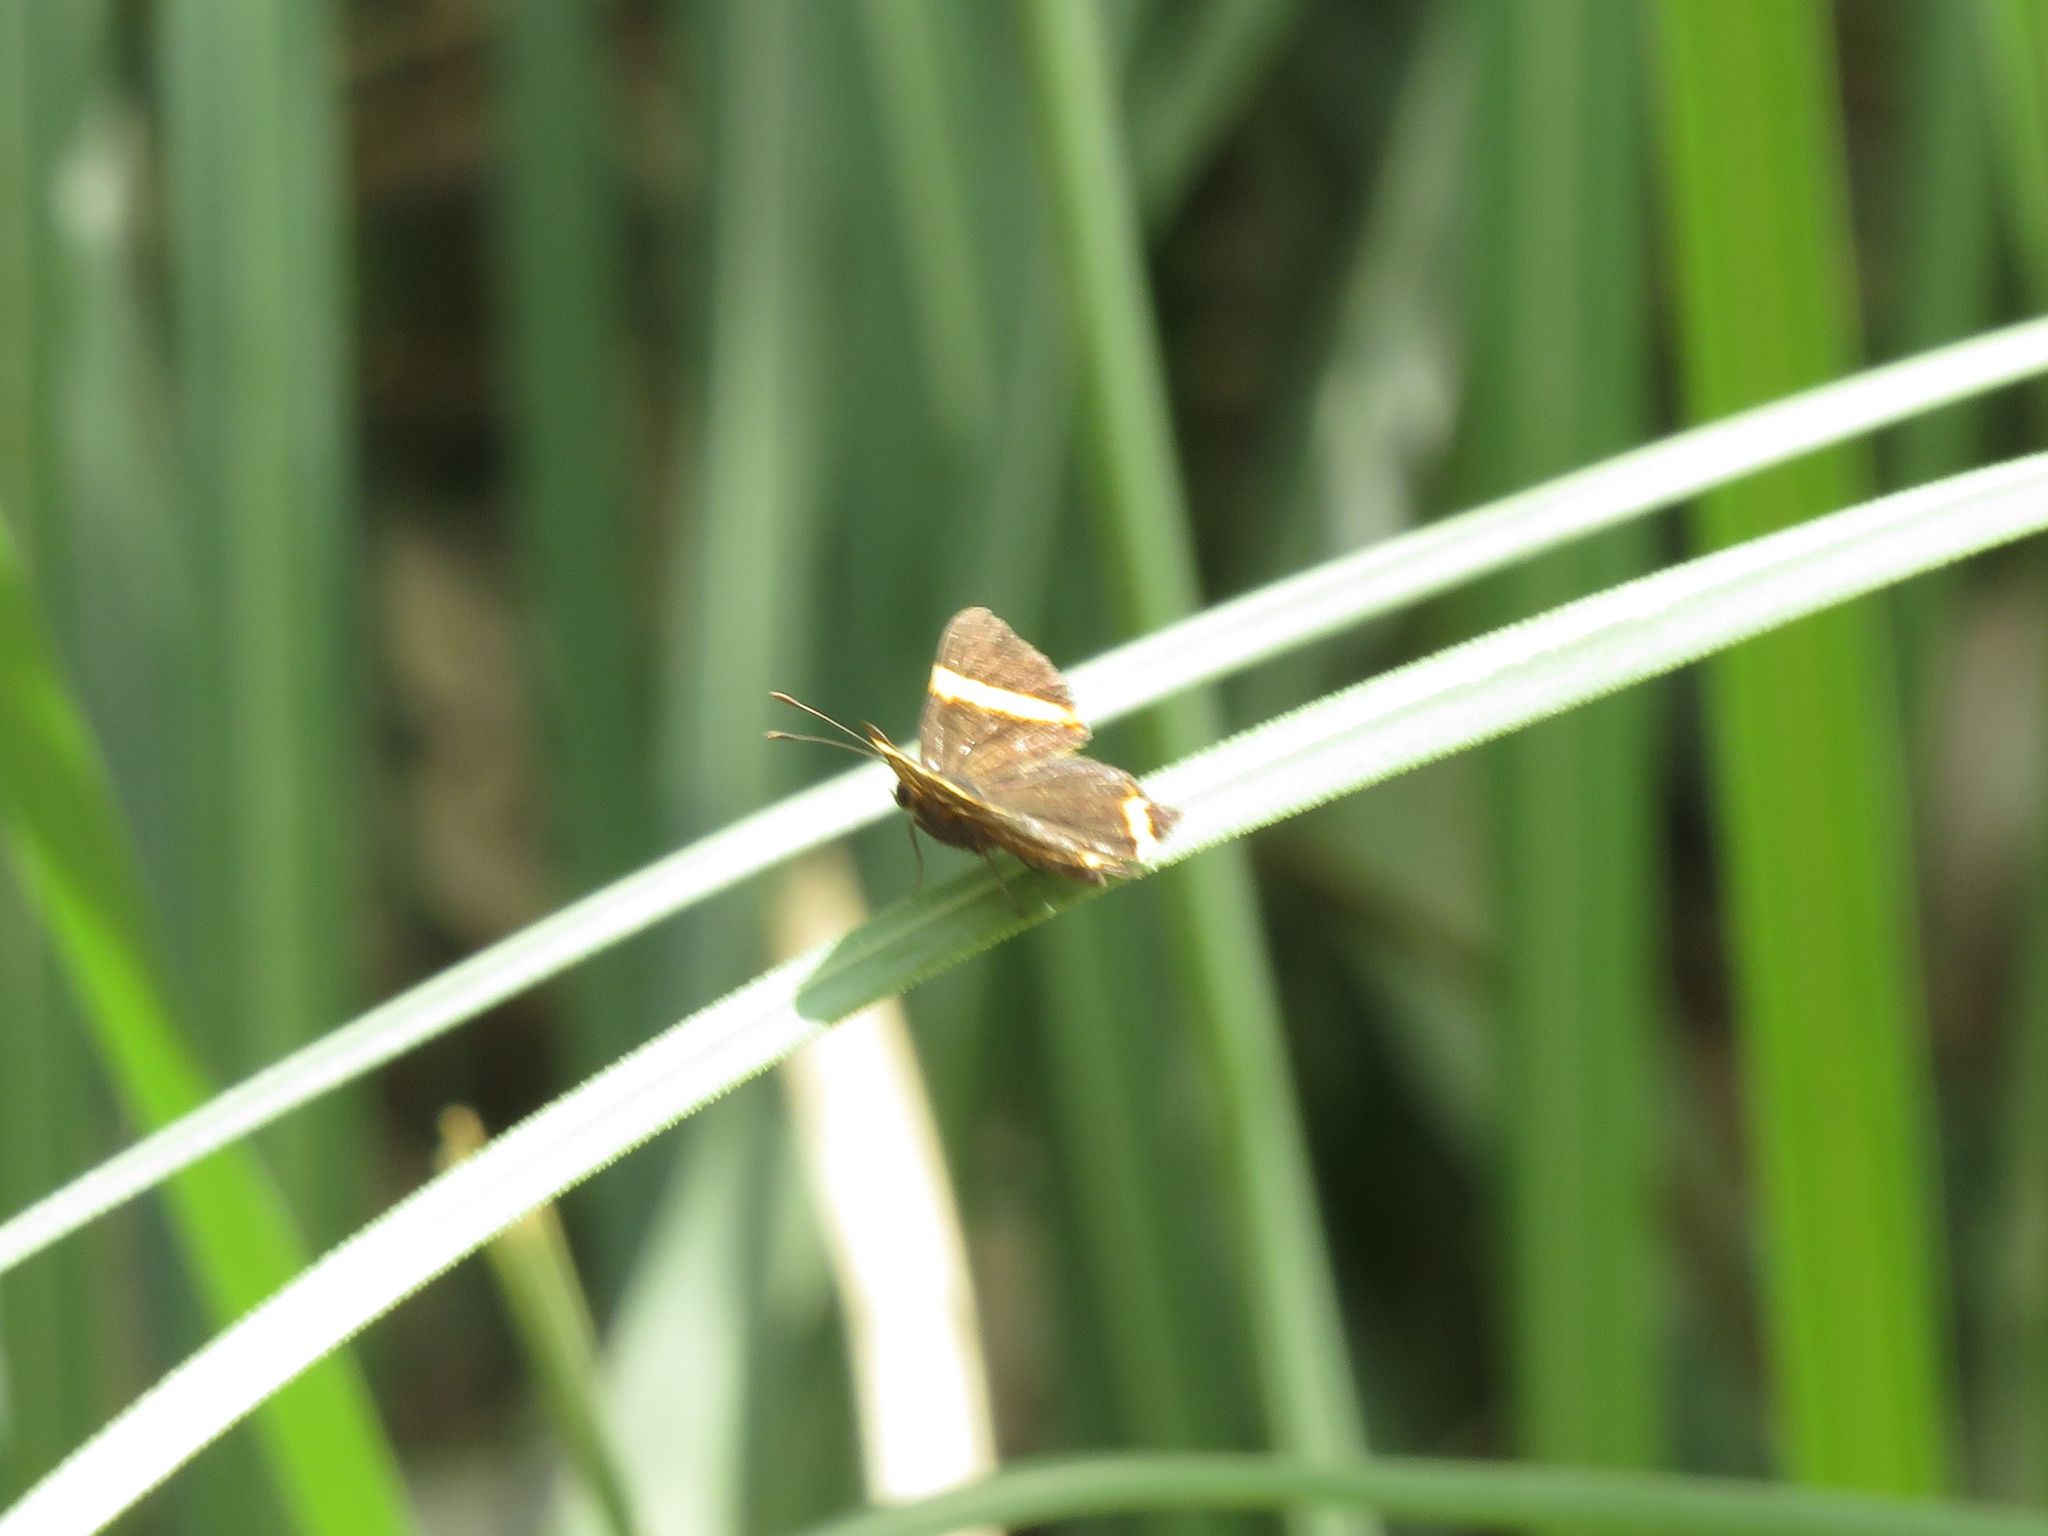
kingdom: Animalia
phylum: Arthropoda
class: Insecta
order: Lepidoptera
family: Riodinidae
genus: Riodina
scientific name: Riodina lysippoides
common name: Little dancer metalmark
